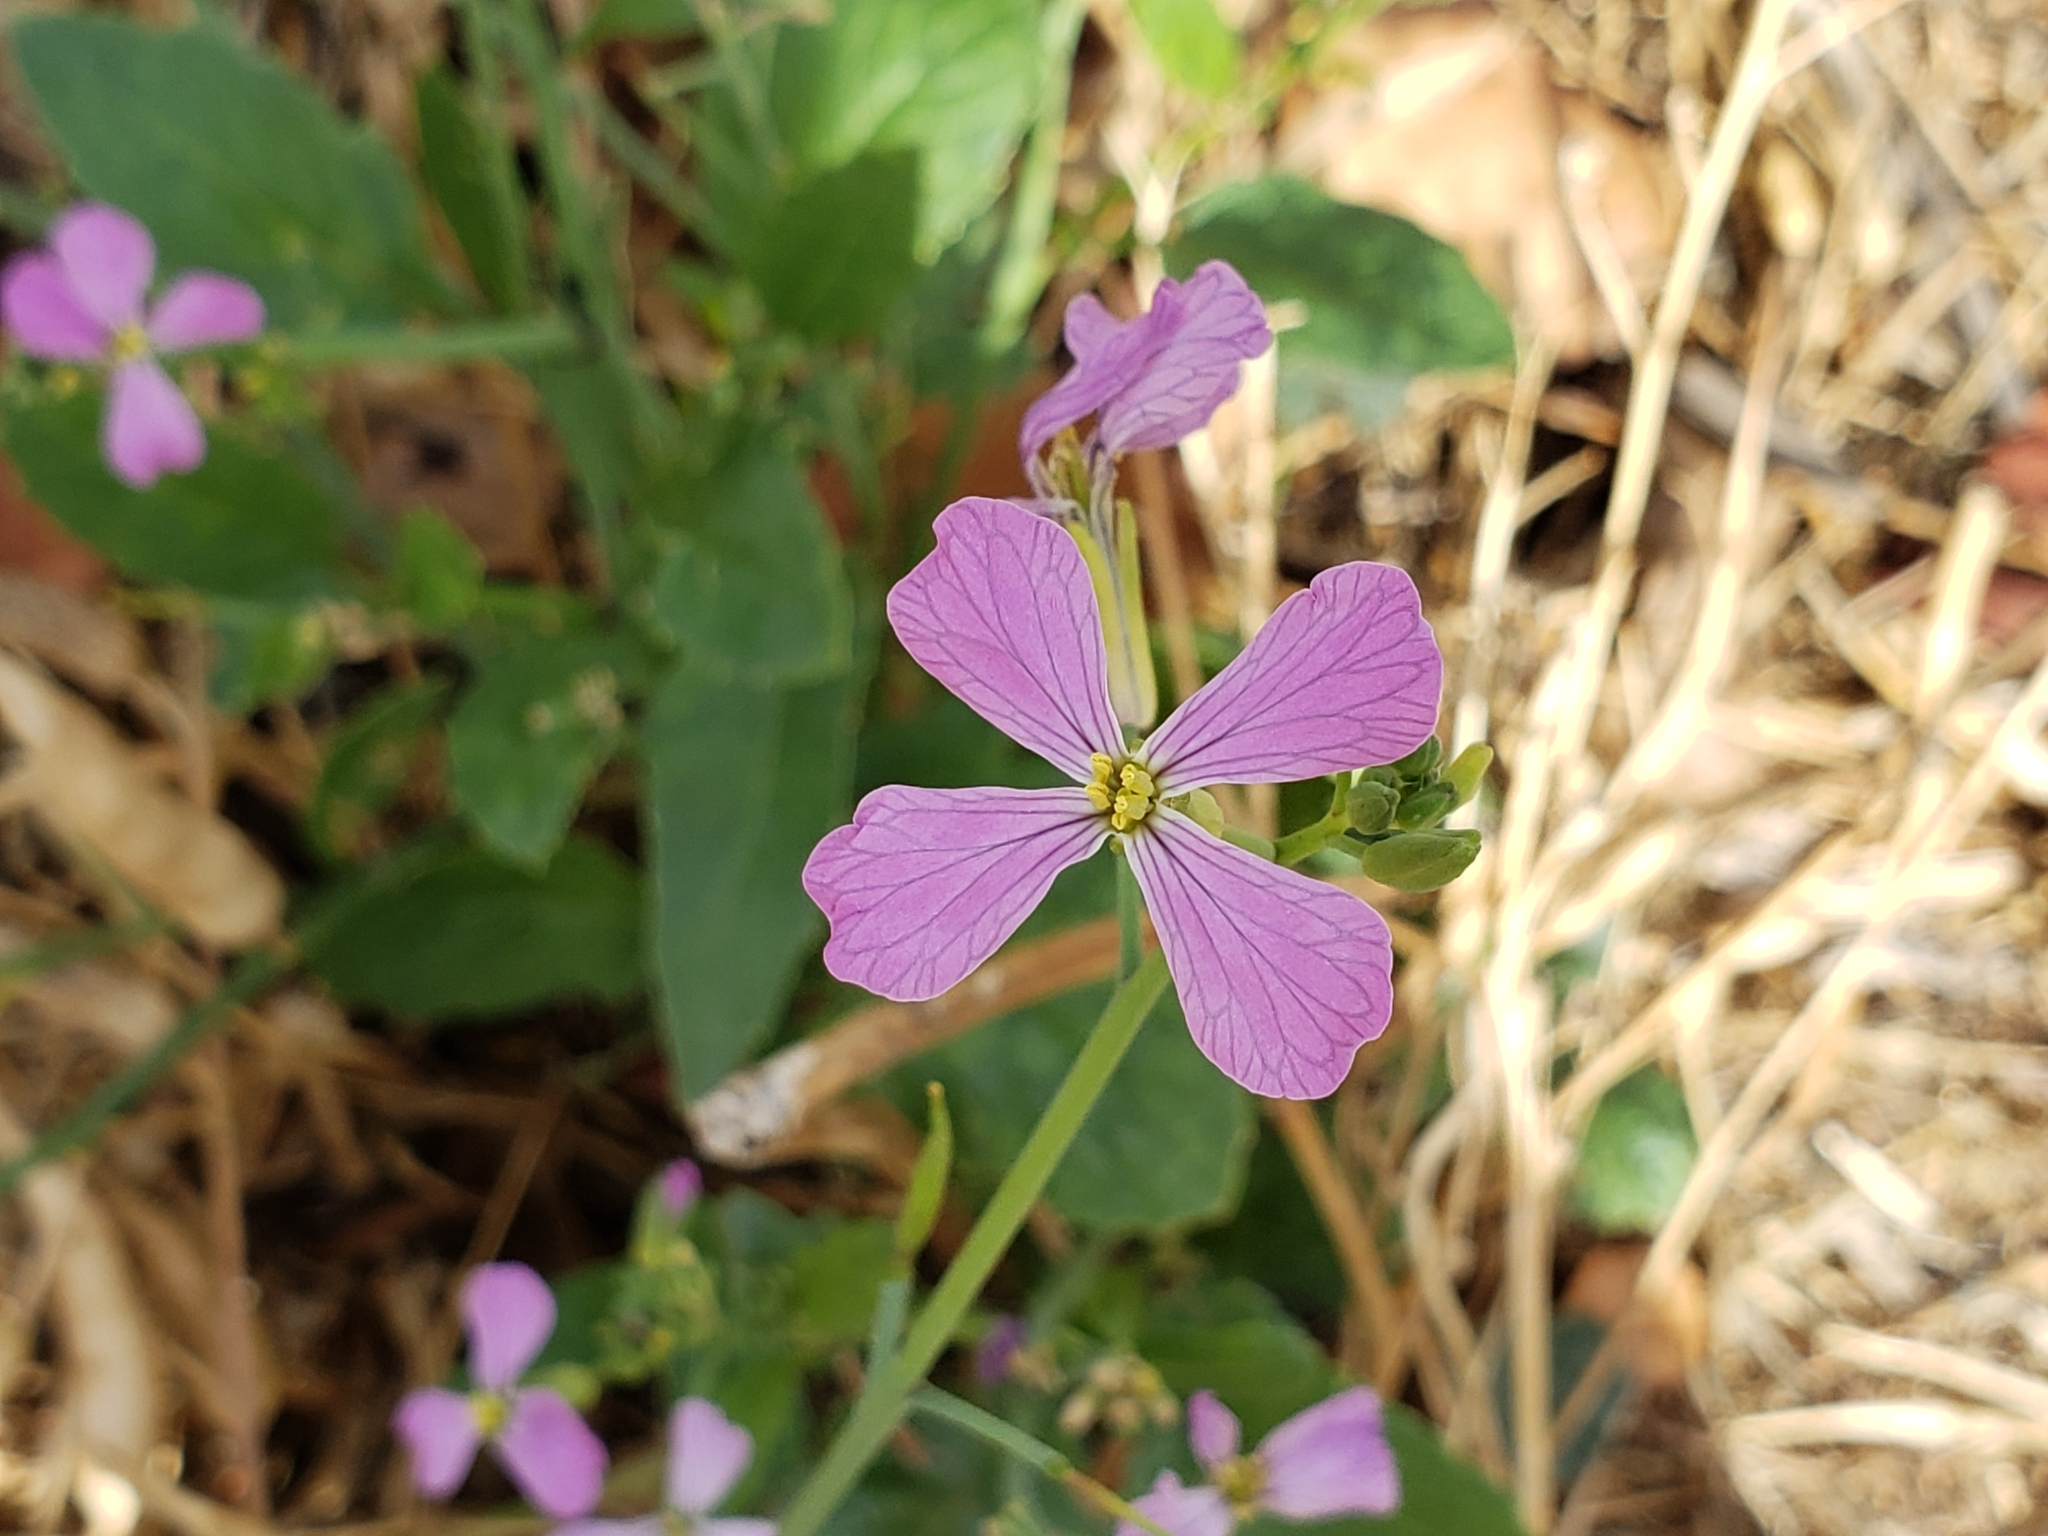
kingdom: Plantae
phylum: Tracheophyta
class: Magnoliopsida
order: Brassicales
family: Brassicaceae
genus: Raphanus
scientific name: Raphanus sativus
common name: Cultivated radish
